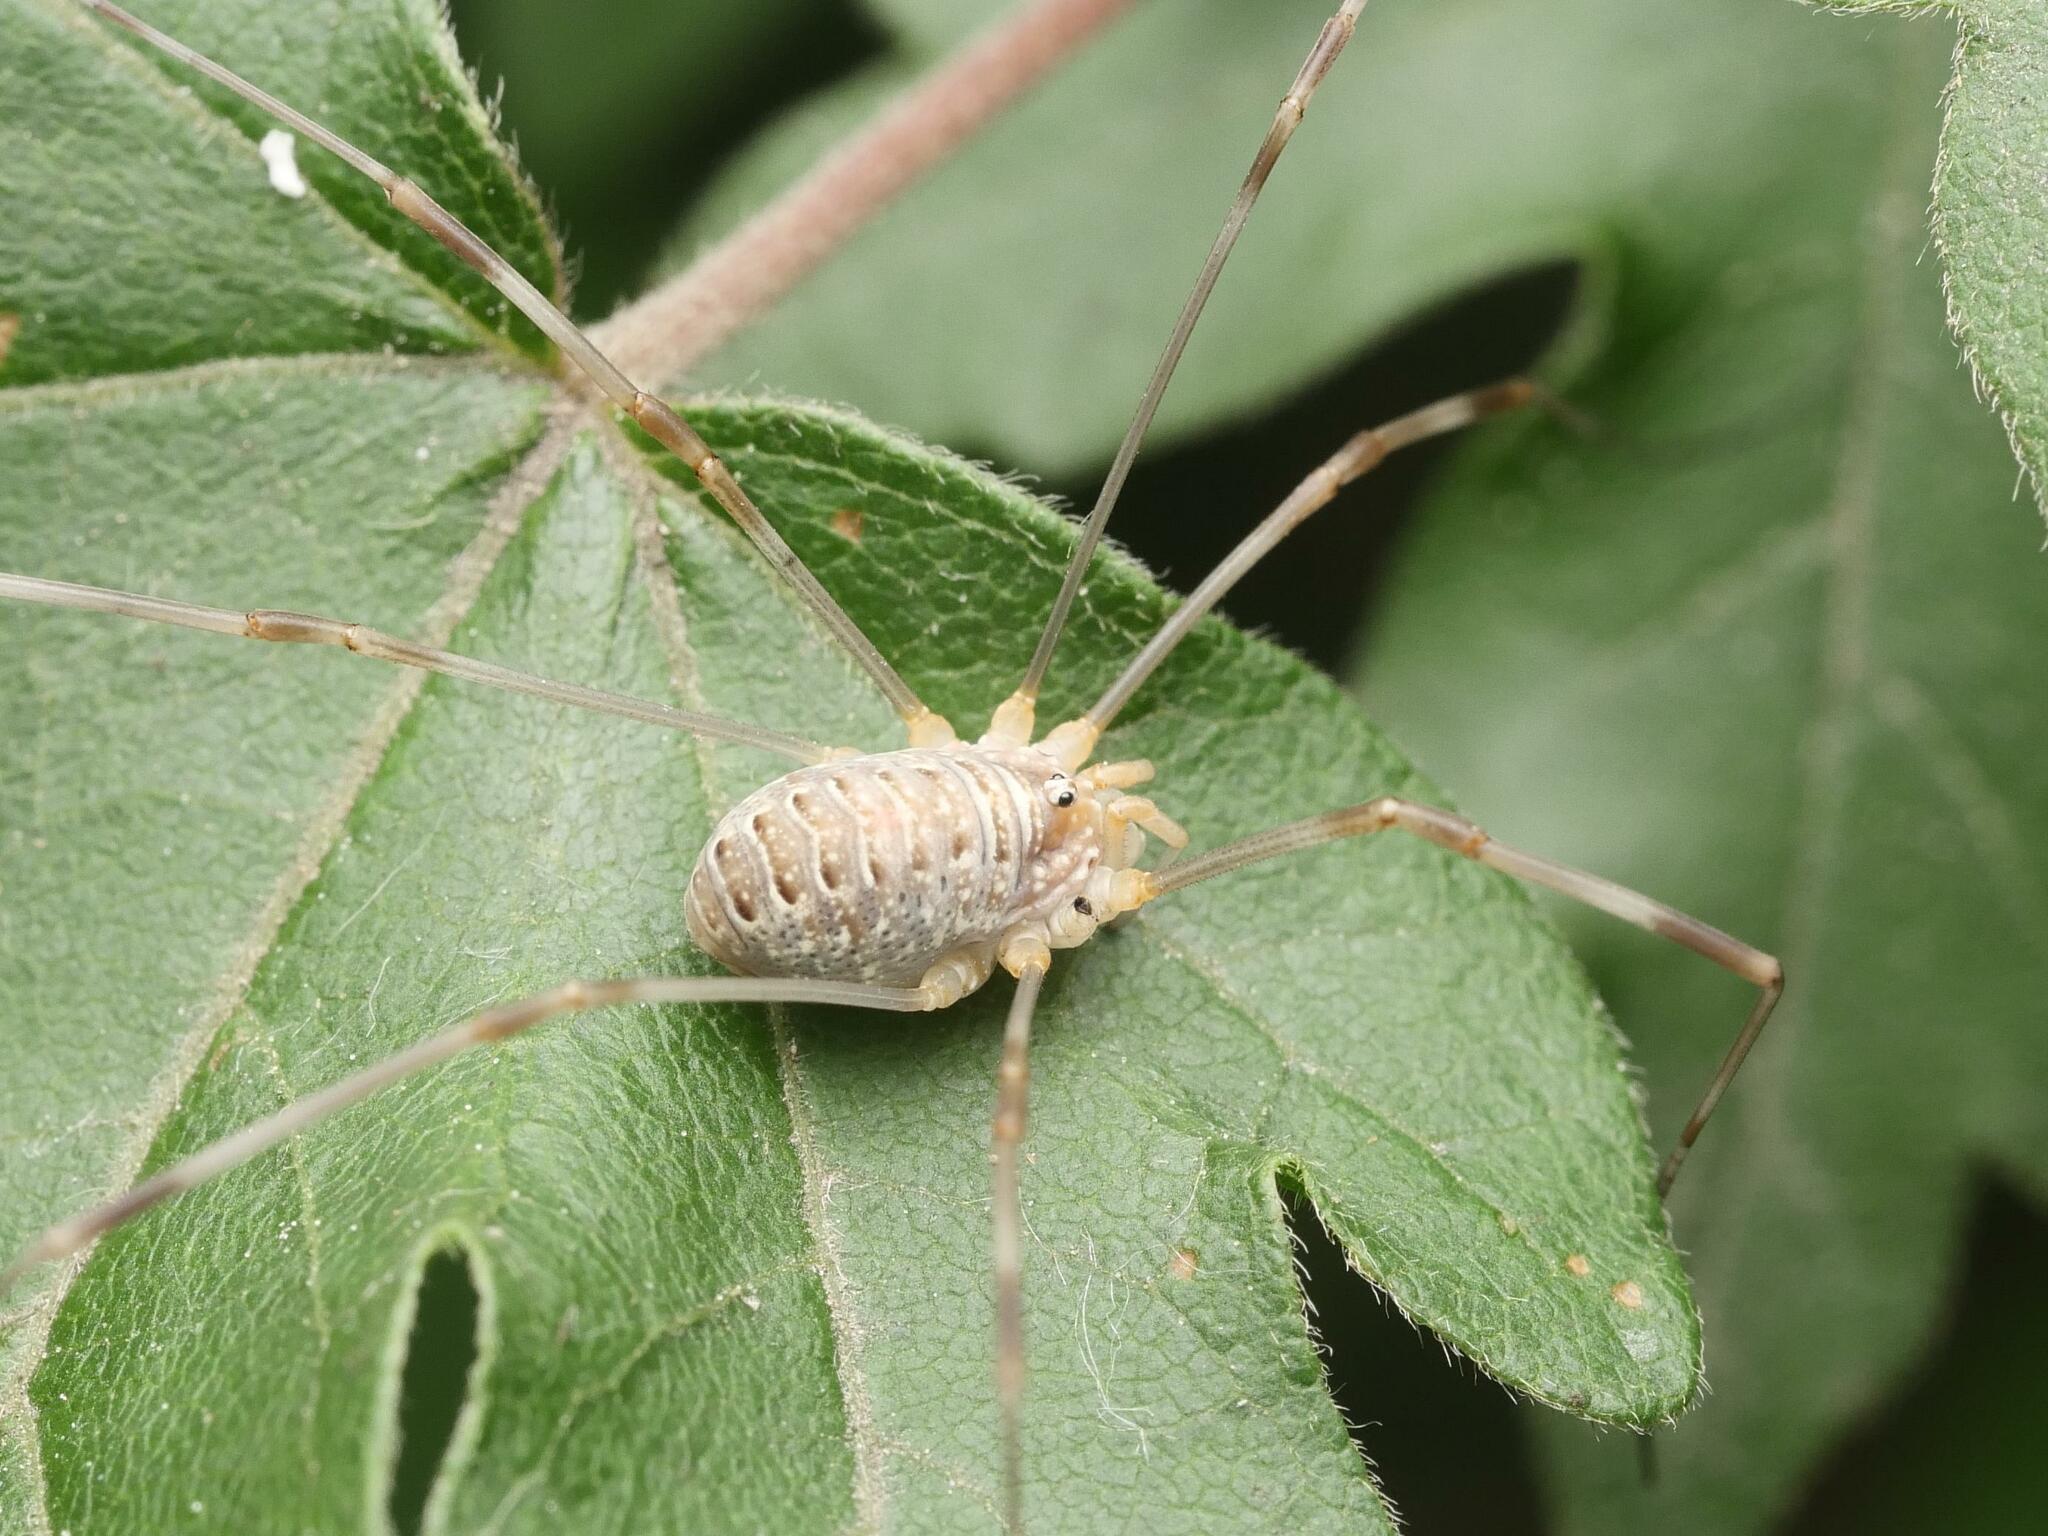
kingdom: Animalia
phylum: Arthropoda
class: Arachnida
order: Opiliones
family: Phalangiidae
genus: Opilio
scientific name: Opilio canestrinii
